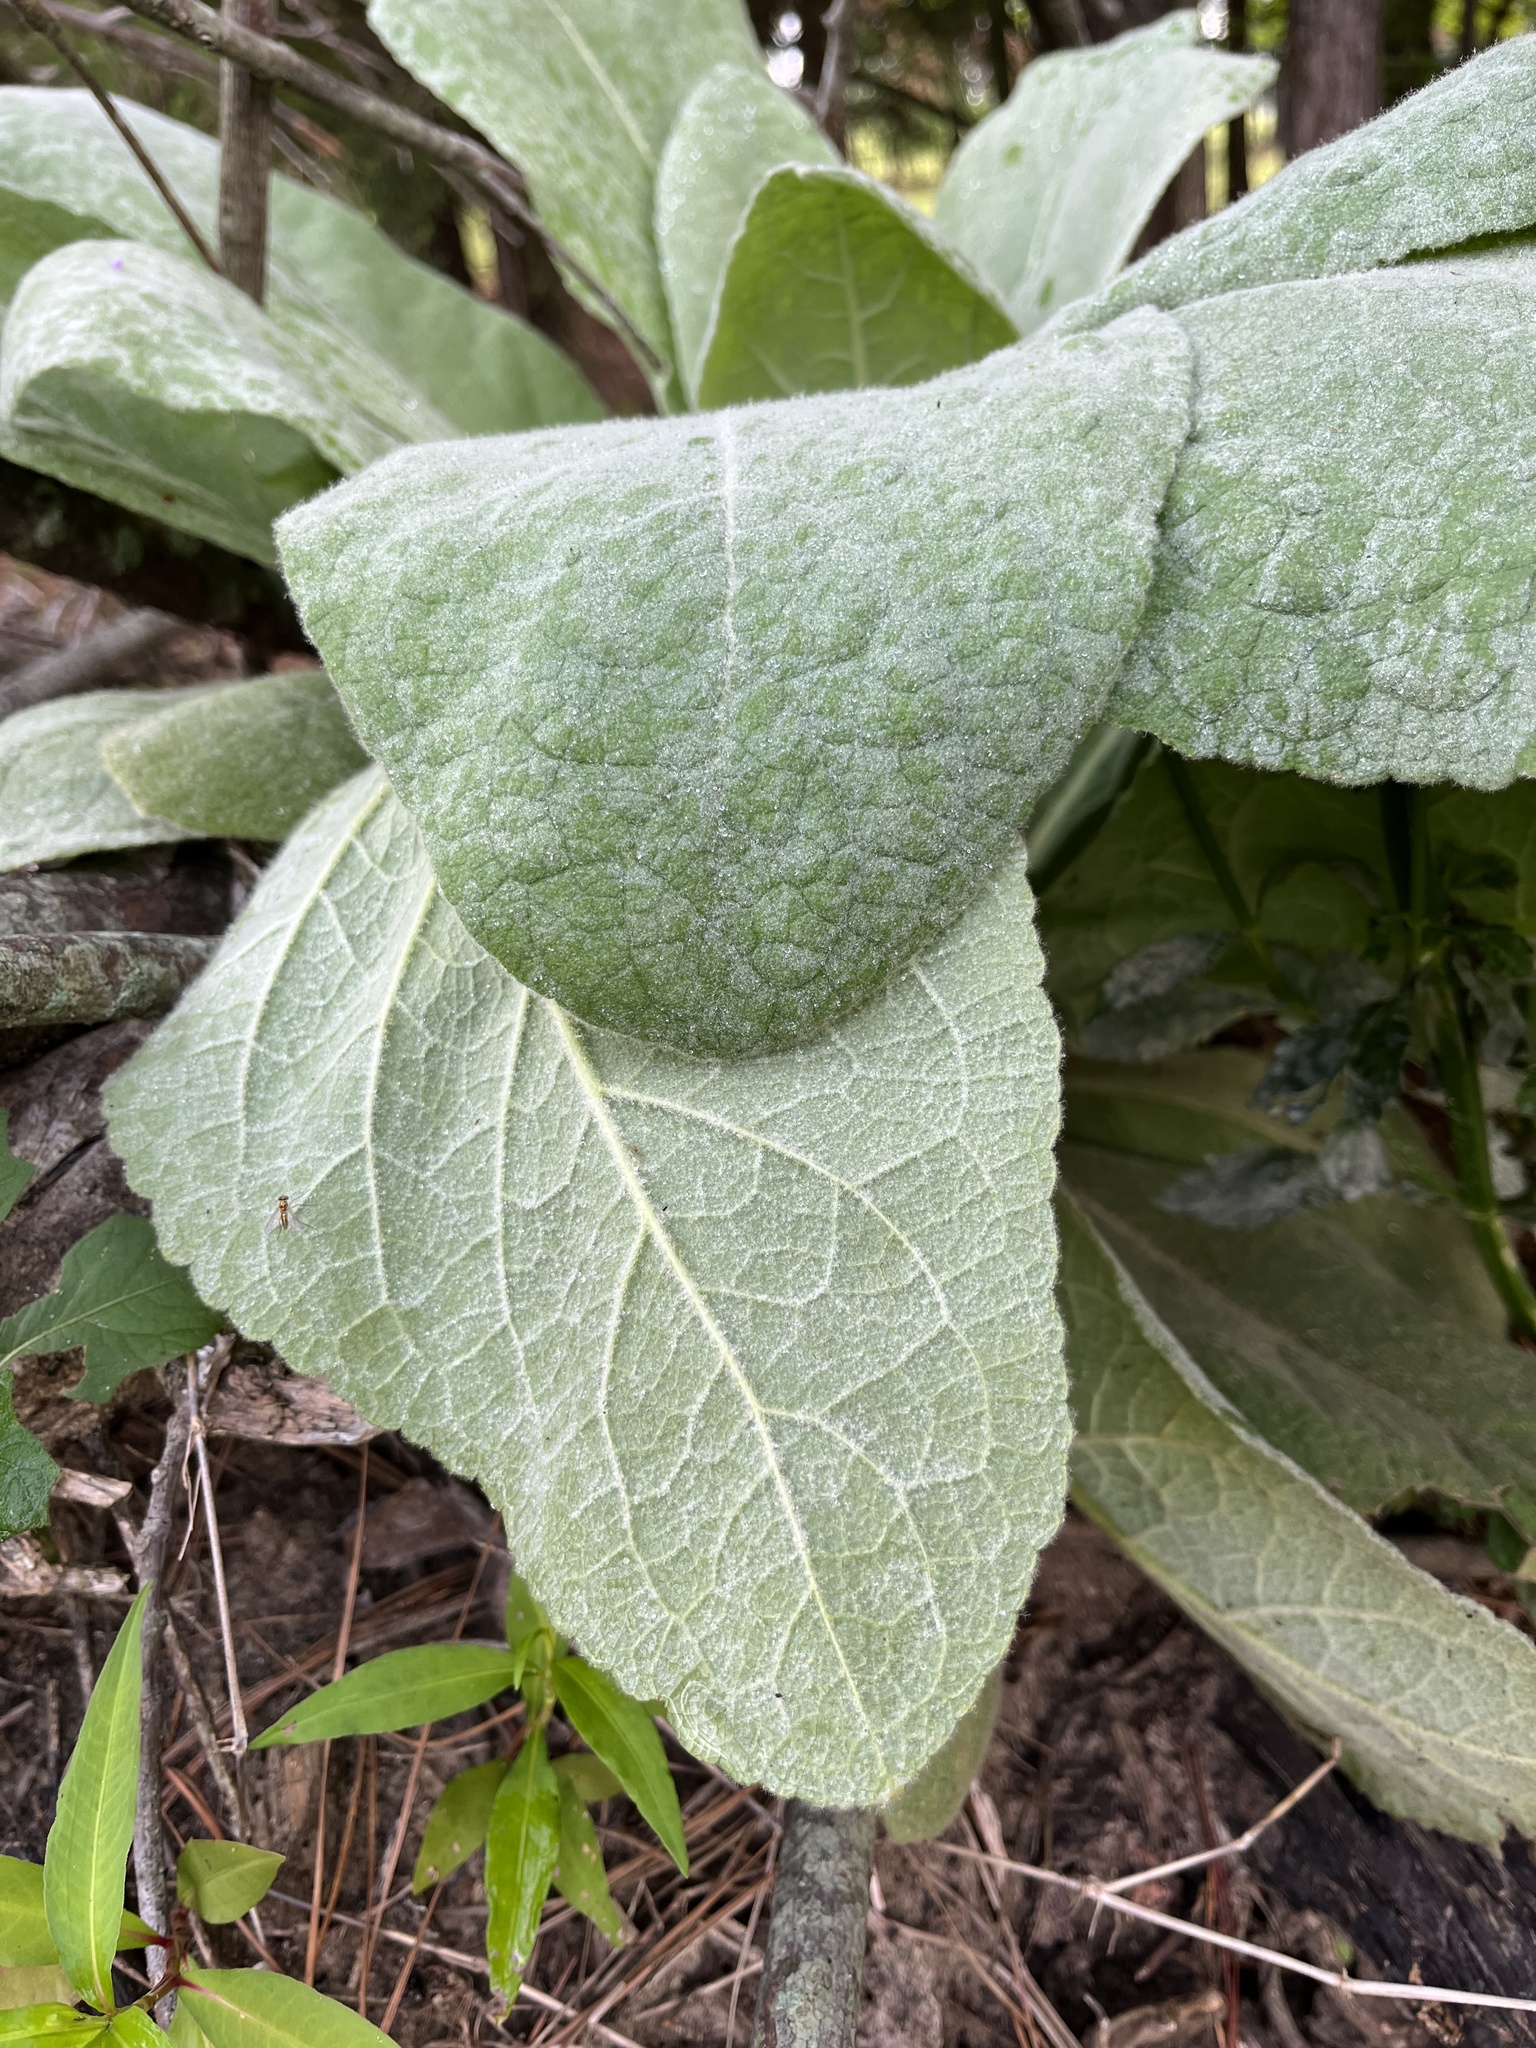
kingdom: Plantae
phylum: Tracheophyta
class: Magnoliopsida
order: Lamiales
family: Scrophulariaceae
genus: Verbascum
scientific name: Verbascum thapsus
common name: Common mullein
